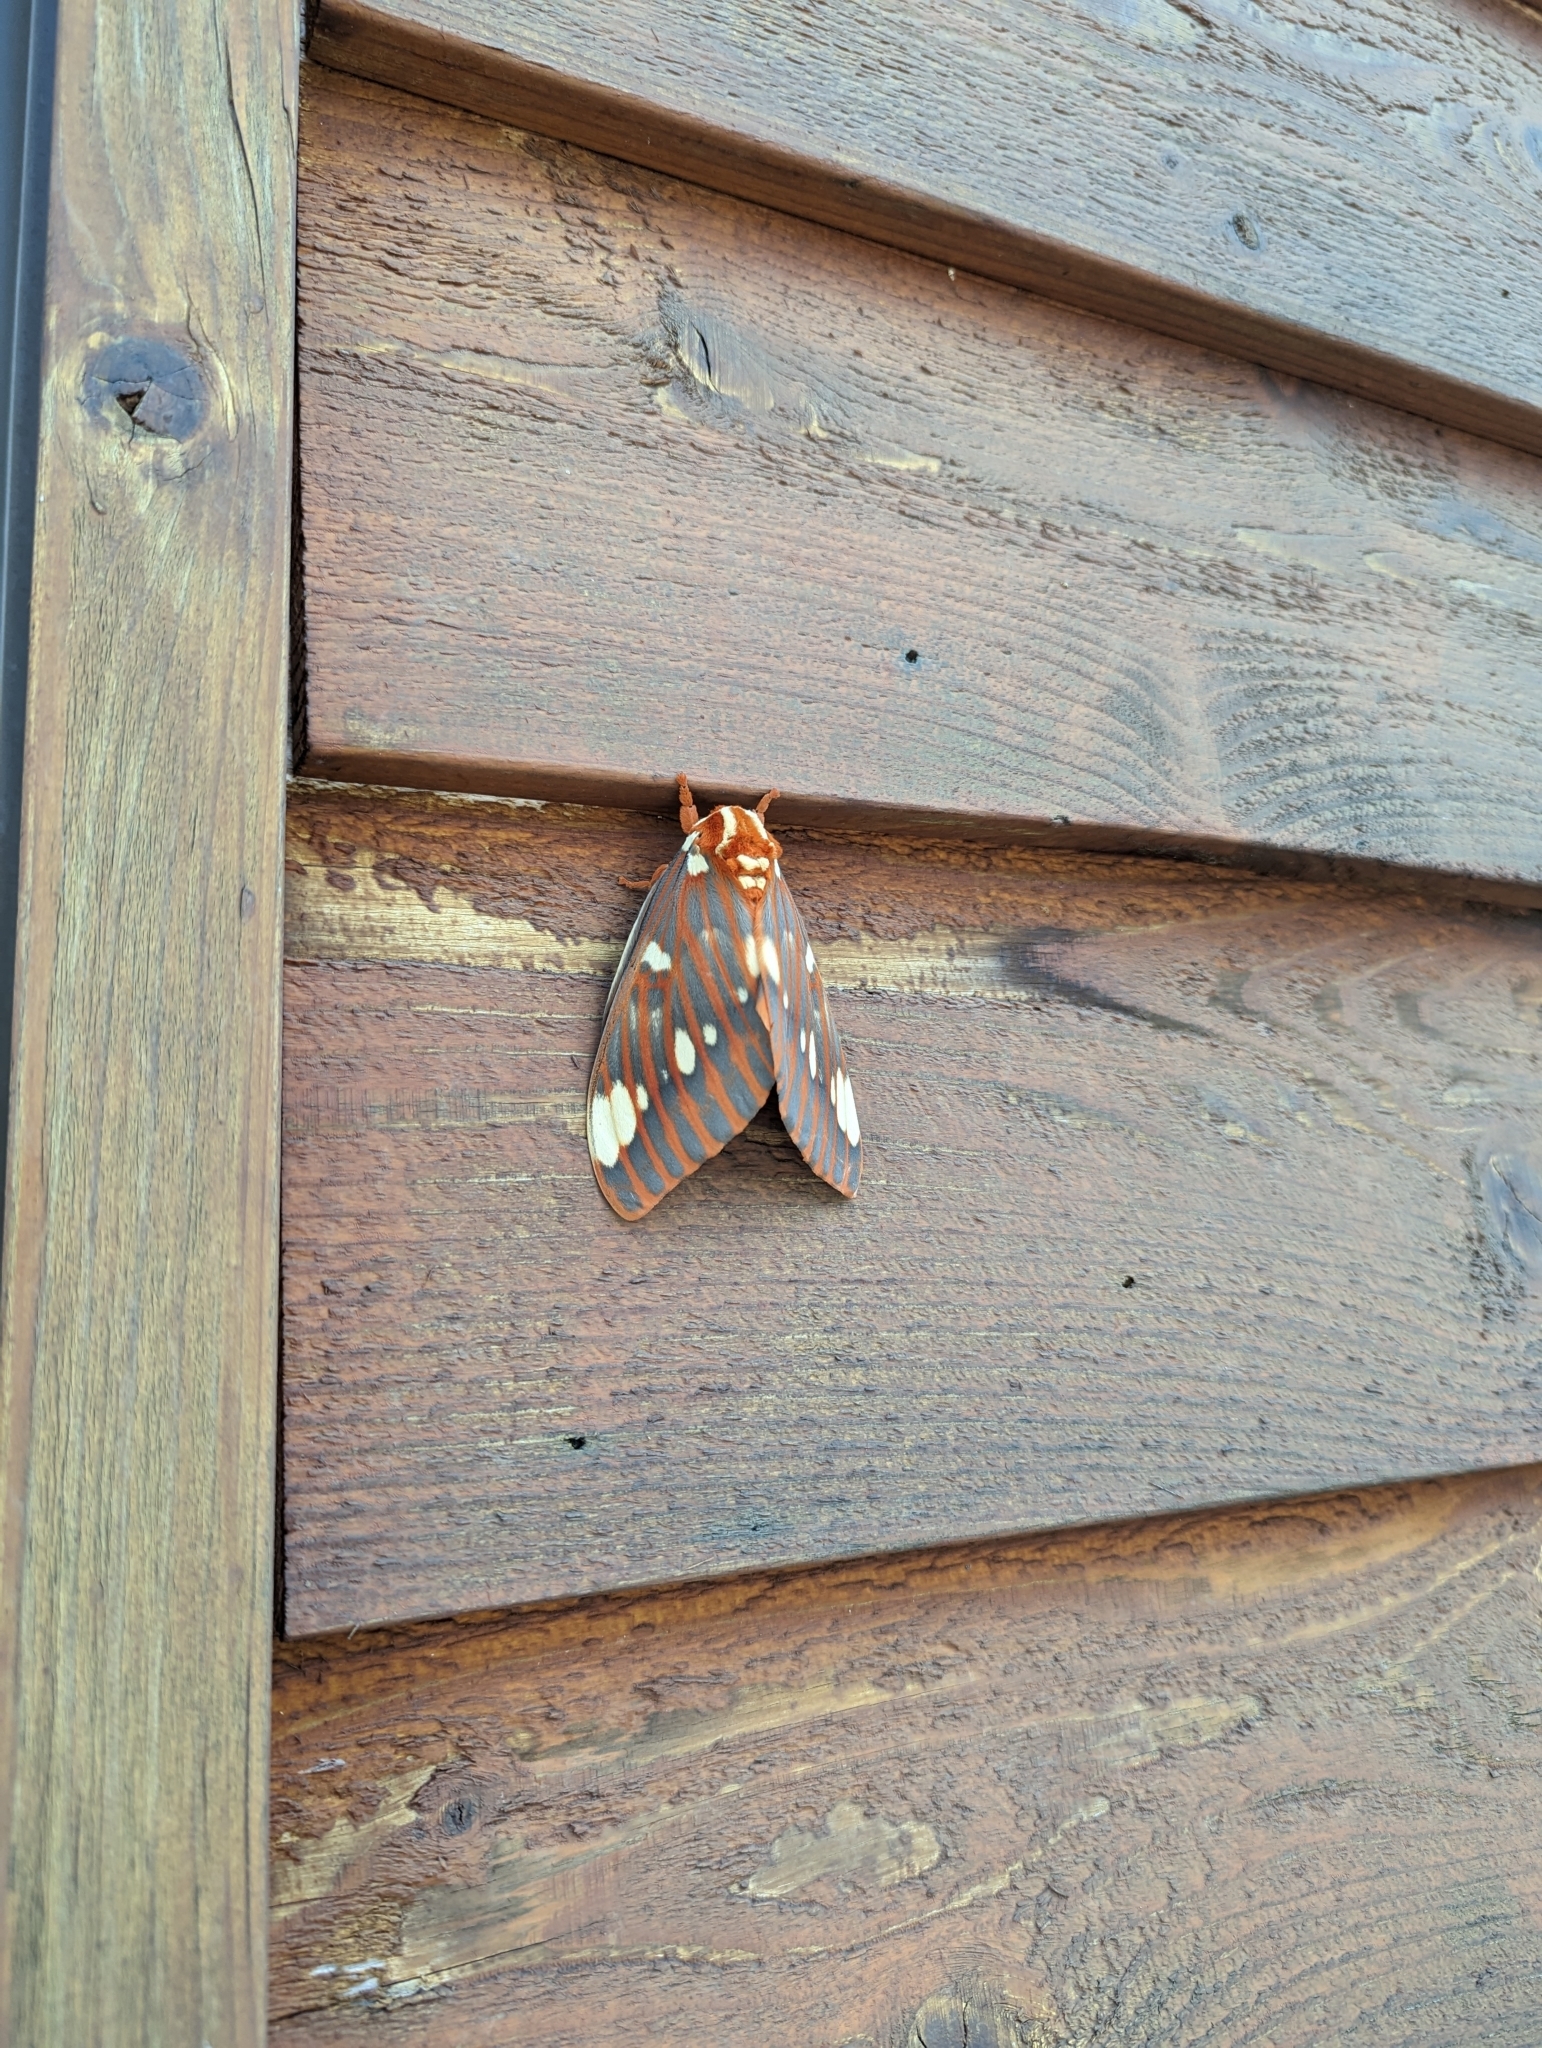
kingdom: Animalia
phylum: Arthropoda
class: Insecta
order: Lepidoptera
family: Saturniidae
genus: Citheronia
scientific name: Citheronia regalis
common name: Hickory horned devil
